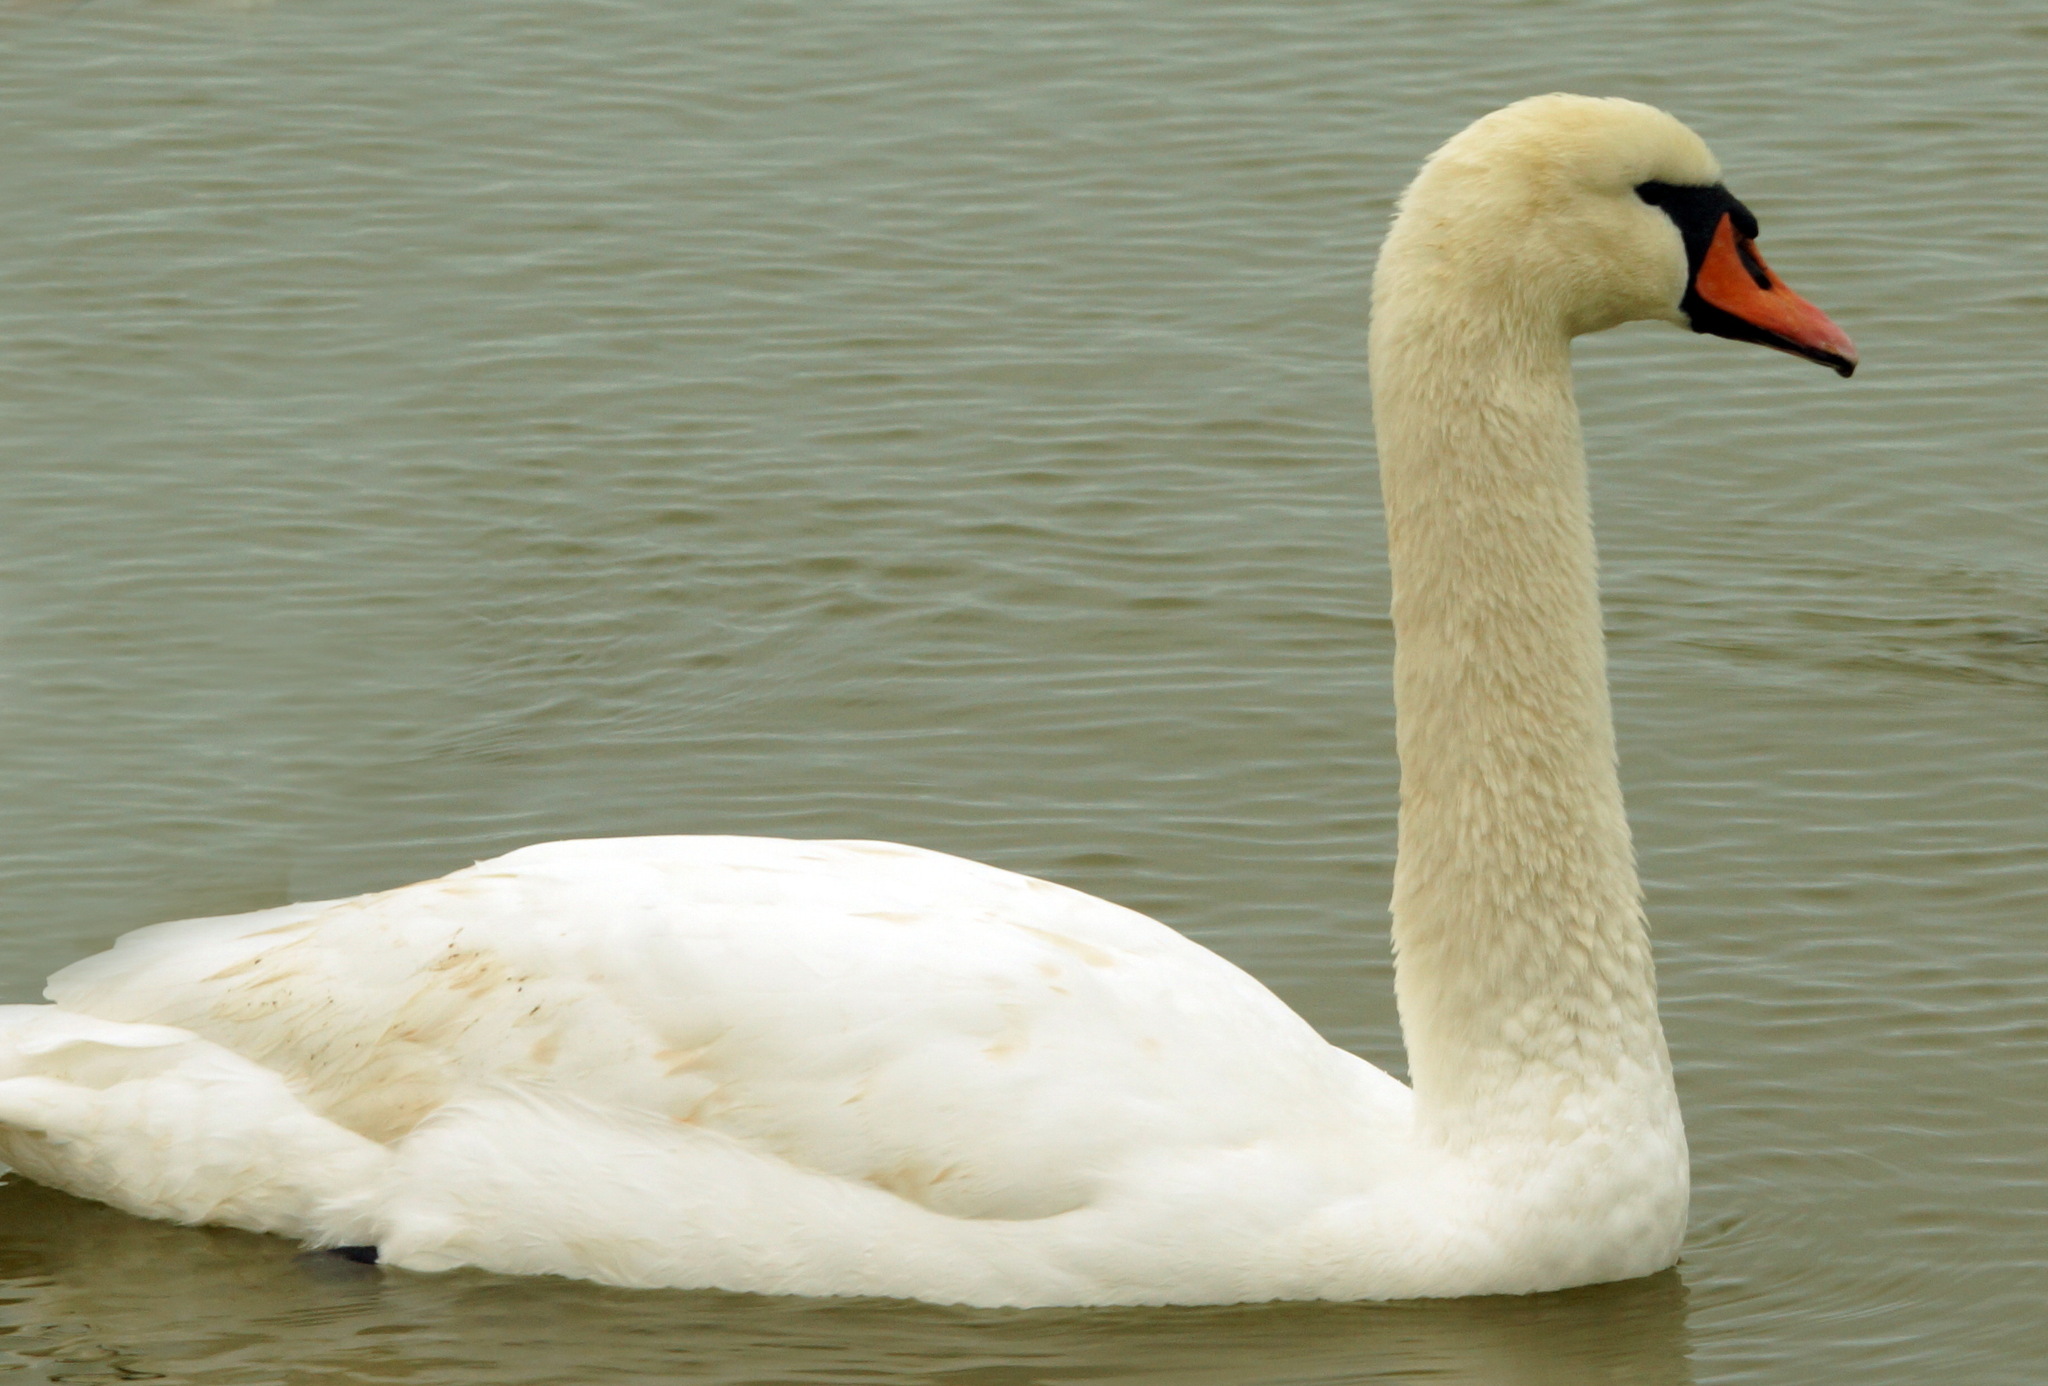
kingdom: Animalia
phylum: Chordata
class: Aves
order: Anseriformes
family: Anatidae
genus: Cygnus
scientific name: Cygnus olor
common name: Mute swan
